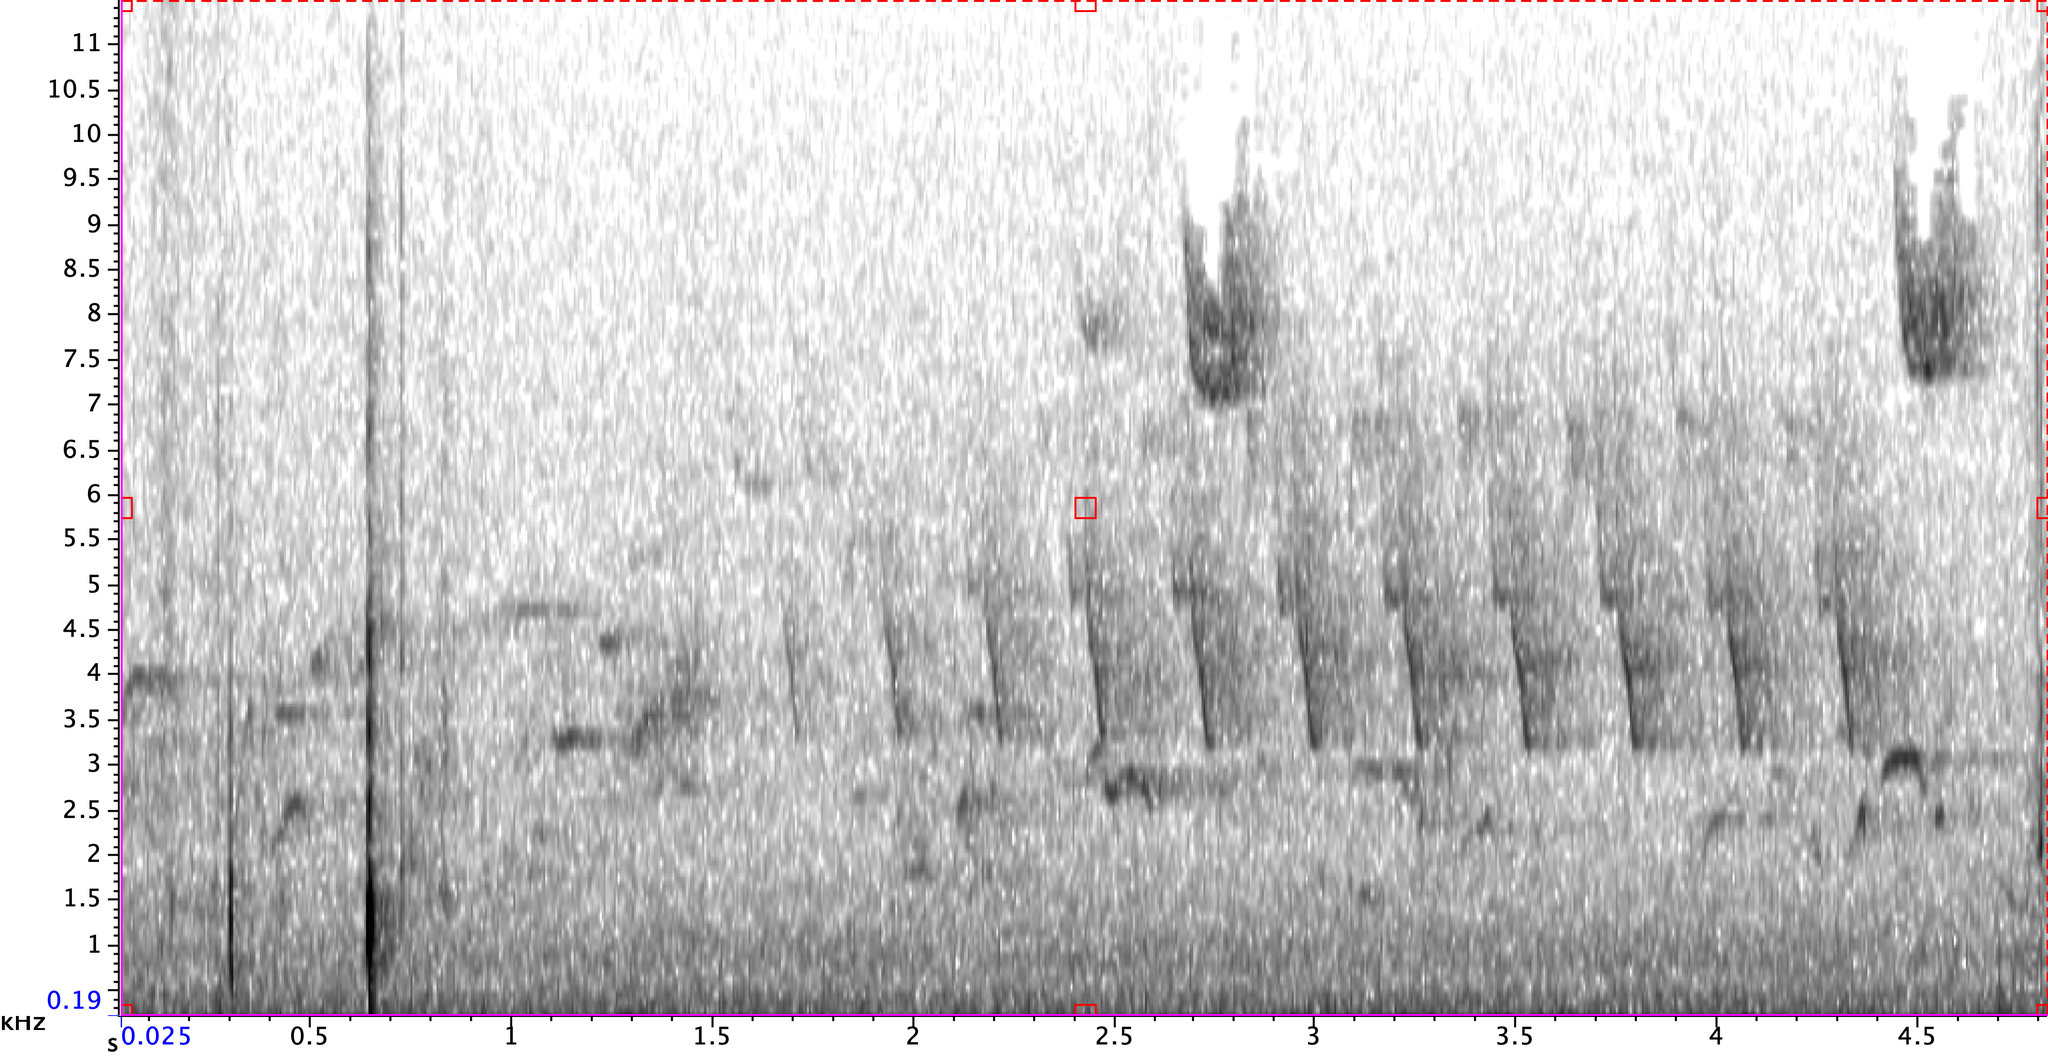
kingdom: Animalia
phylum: Chordata
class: Aves
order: Passeriformes
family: Parulidae
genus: Seiurus
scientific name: Seiurus aurocapilla
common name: Ovenbird
